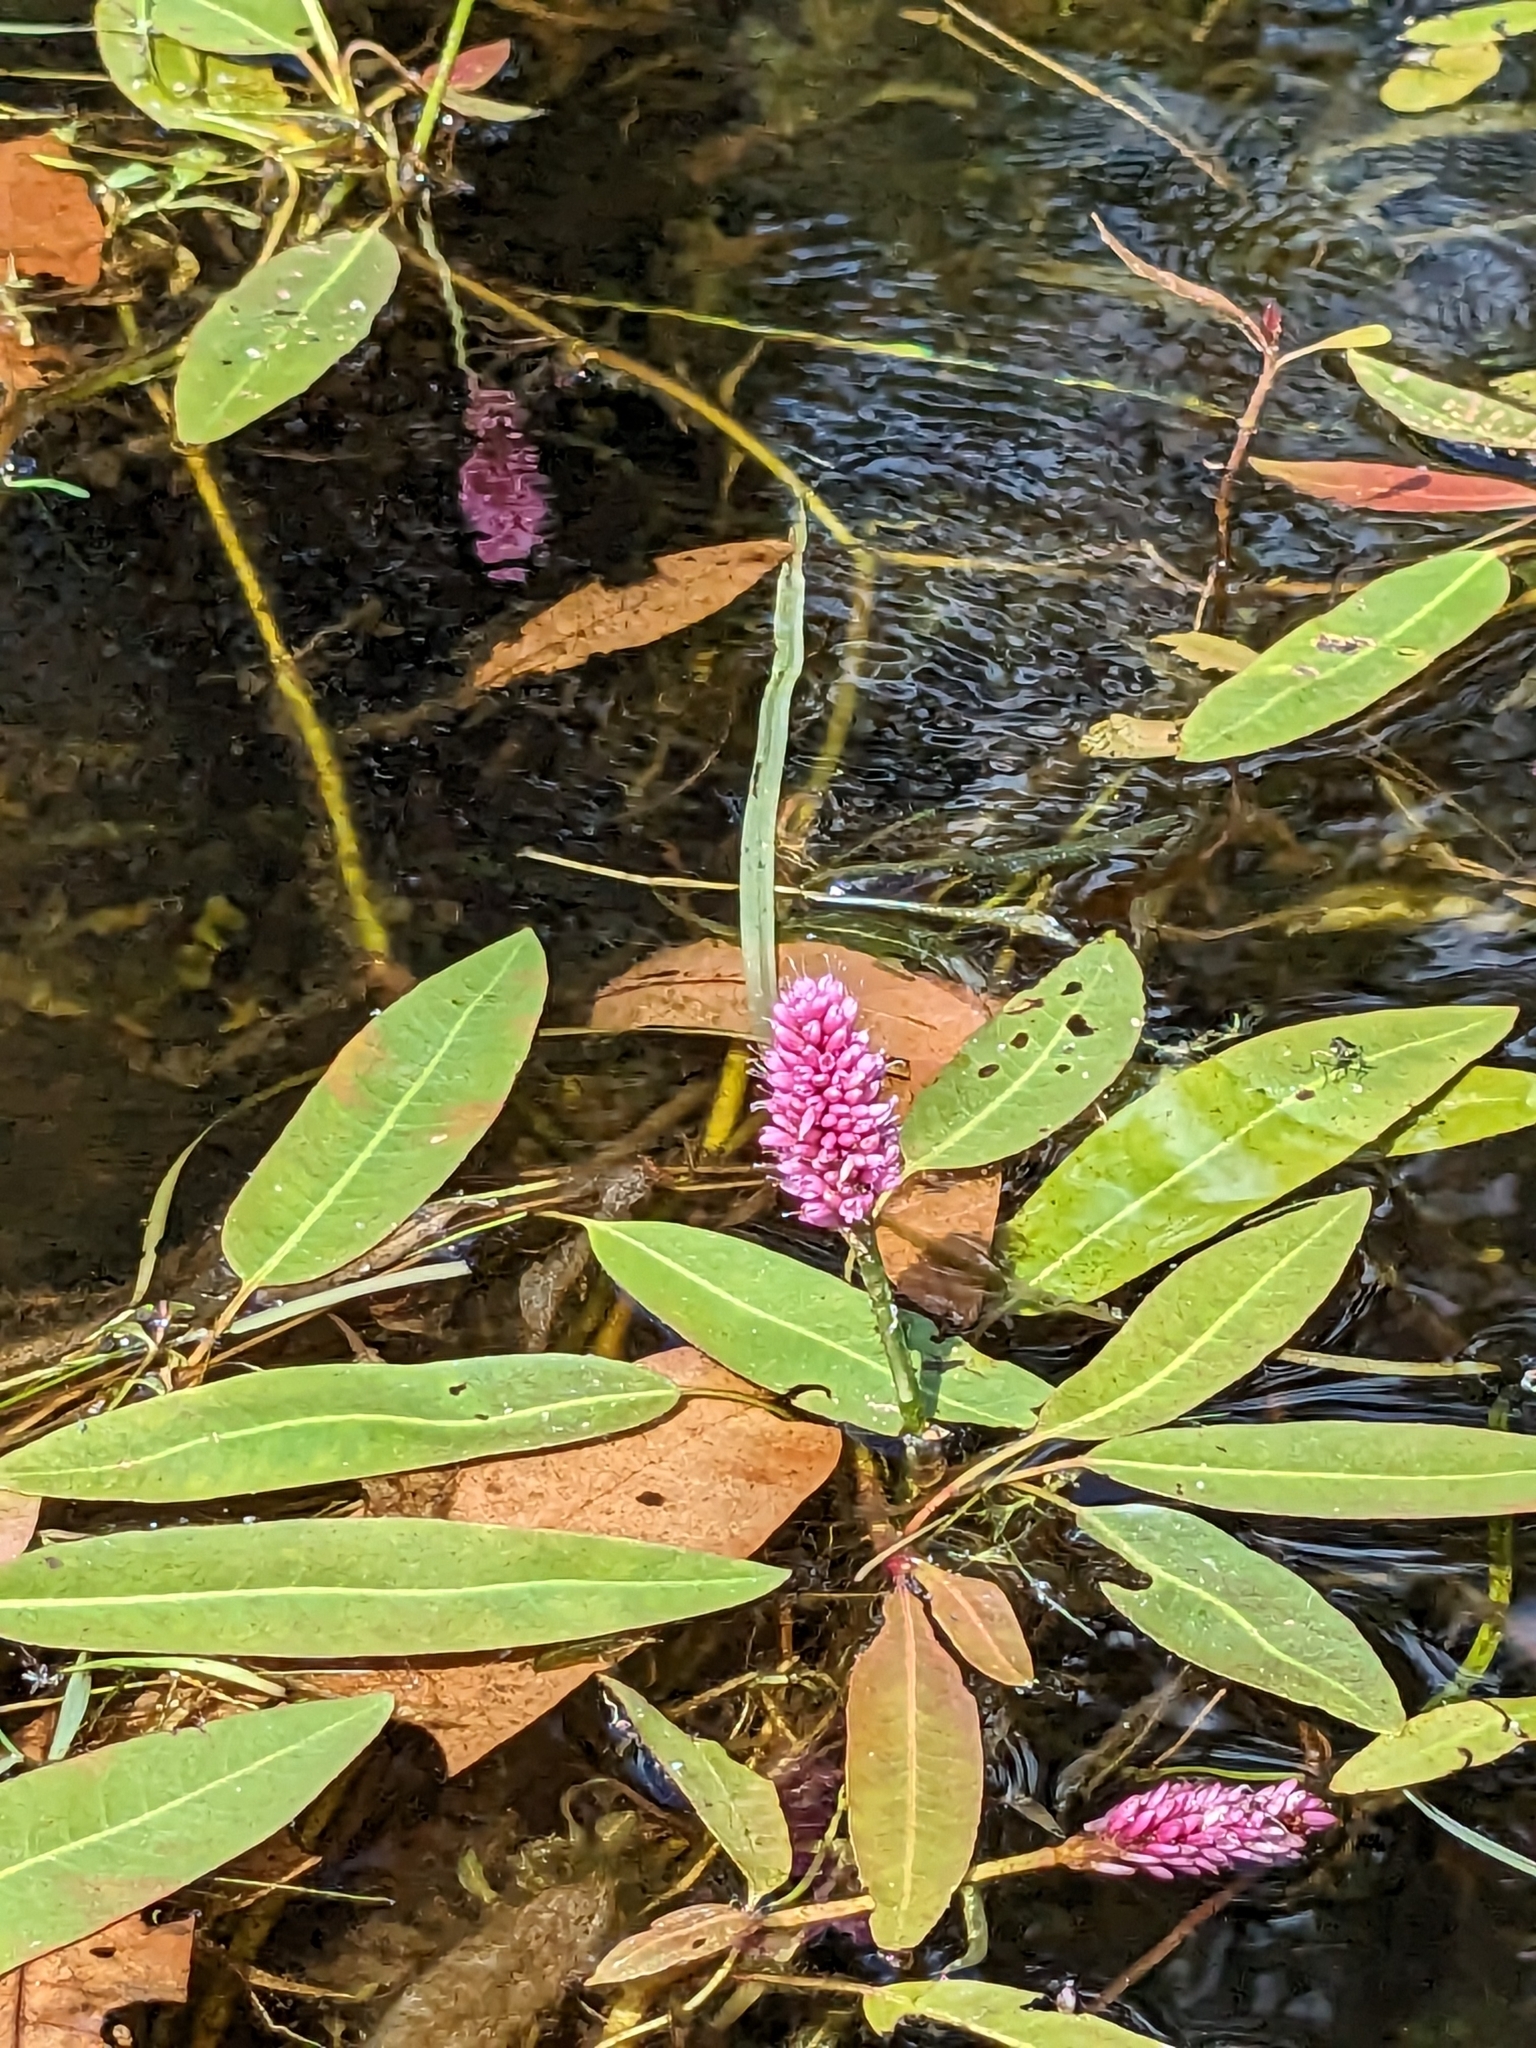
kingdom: Plantae
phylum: Tracheophyta
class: Magnoliopsida
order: Caryophyllales
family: Polygonaceae
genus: Persicaria
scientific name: Persicaria amphibia
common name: Amphibious bistort
